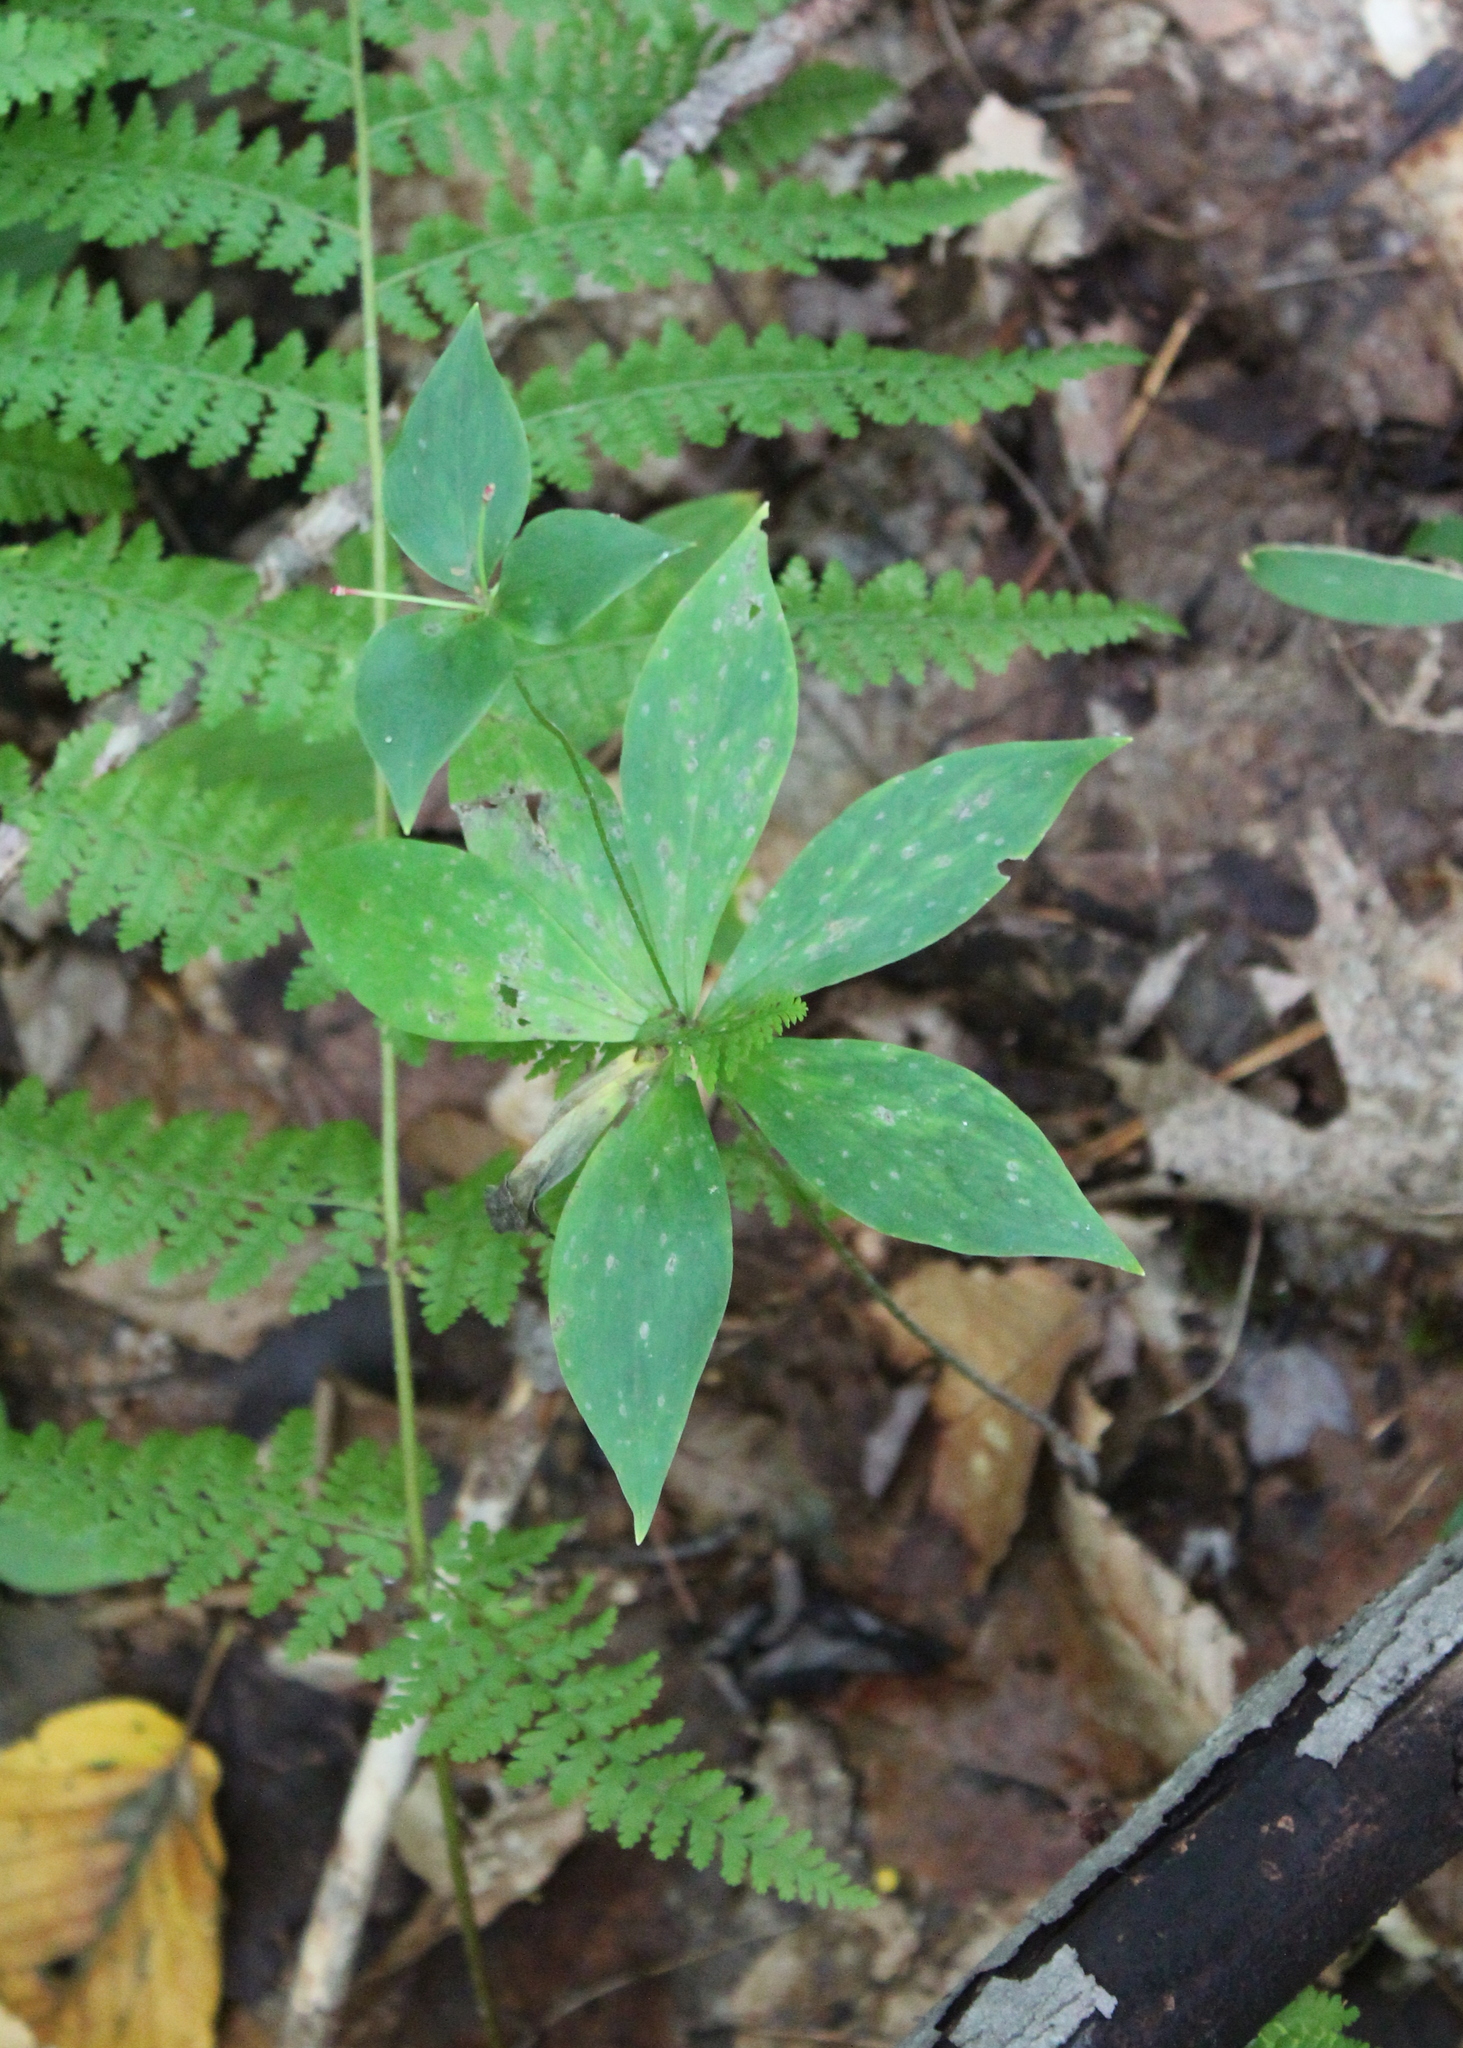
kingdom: Plantae
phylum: Tracheophyta
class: Liliopsida
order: Liliales
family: Liliaceae
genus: Medeola
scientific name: Medeola virginiana
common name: Indian cucumber-root
